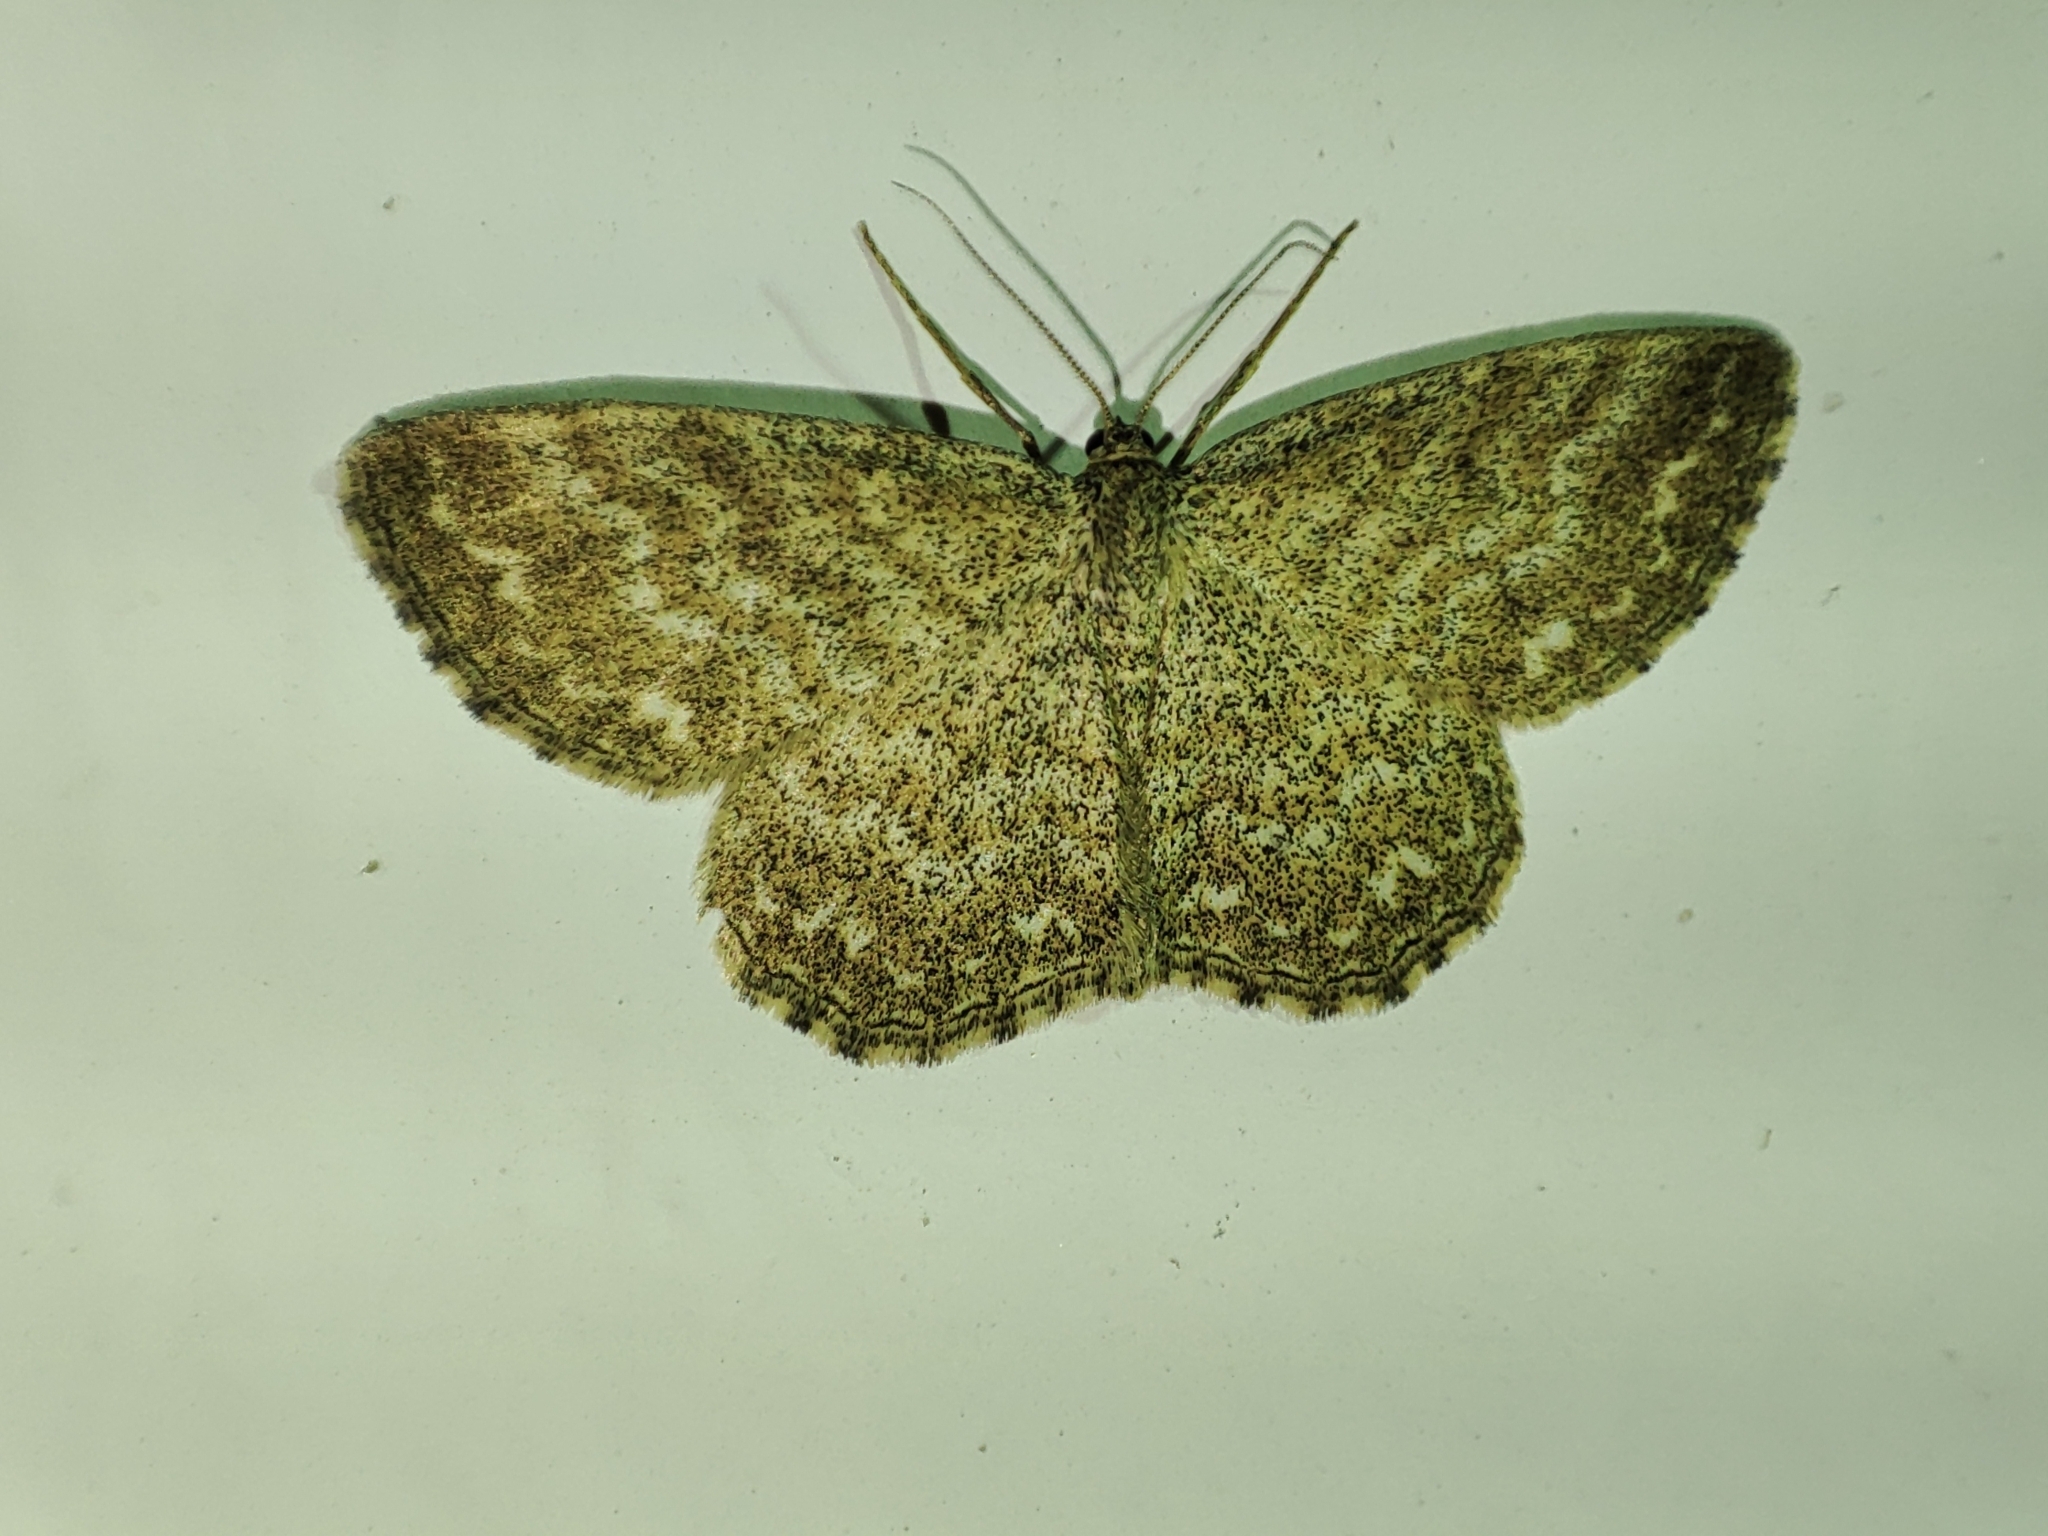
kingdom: Animalia
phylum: Arthropoda
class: Insecta
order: Lepidoptera
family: Geometridae
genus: Scopula
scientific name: Scopula immorata
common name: Lewes wave
